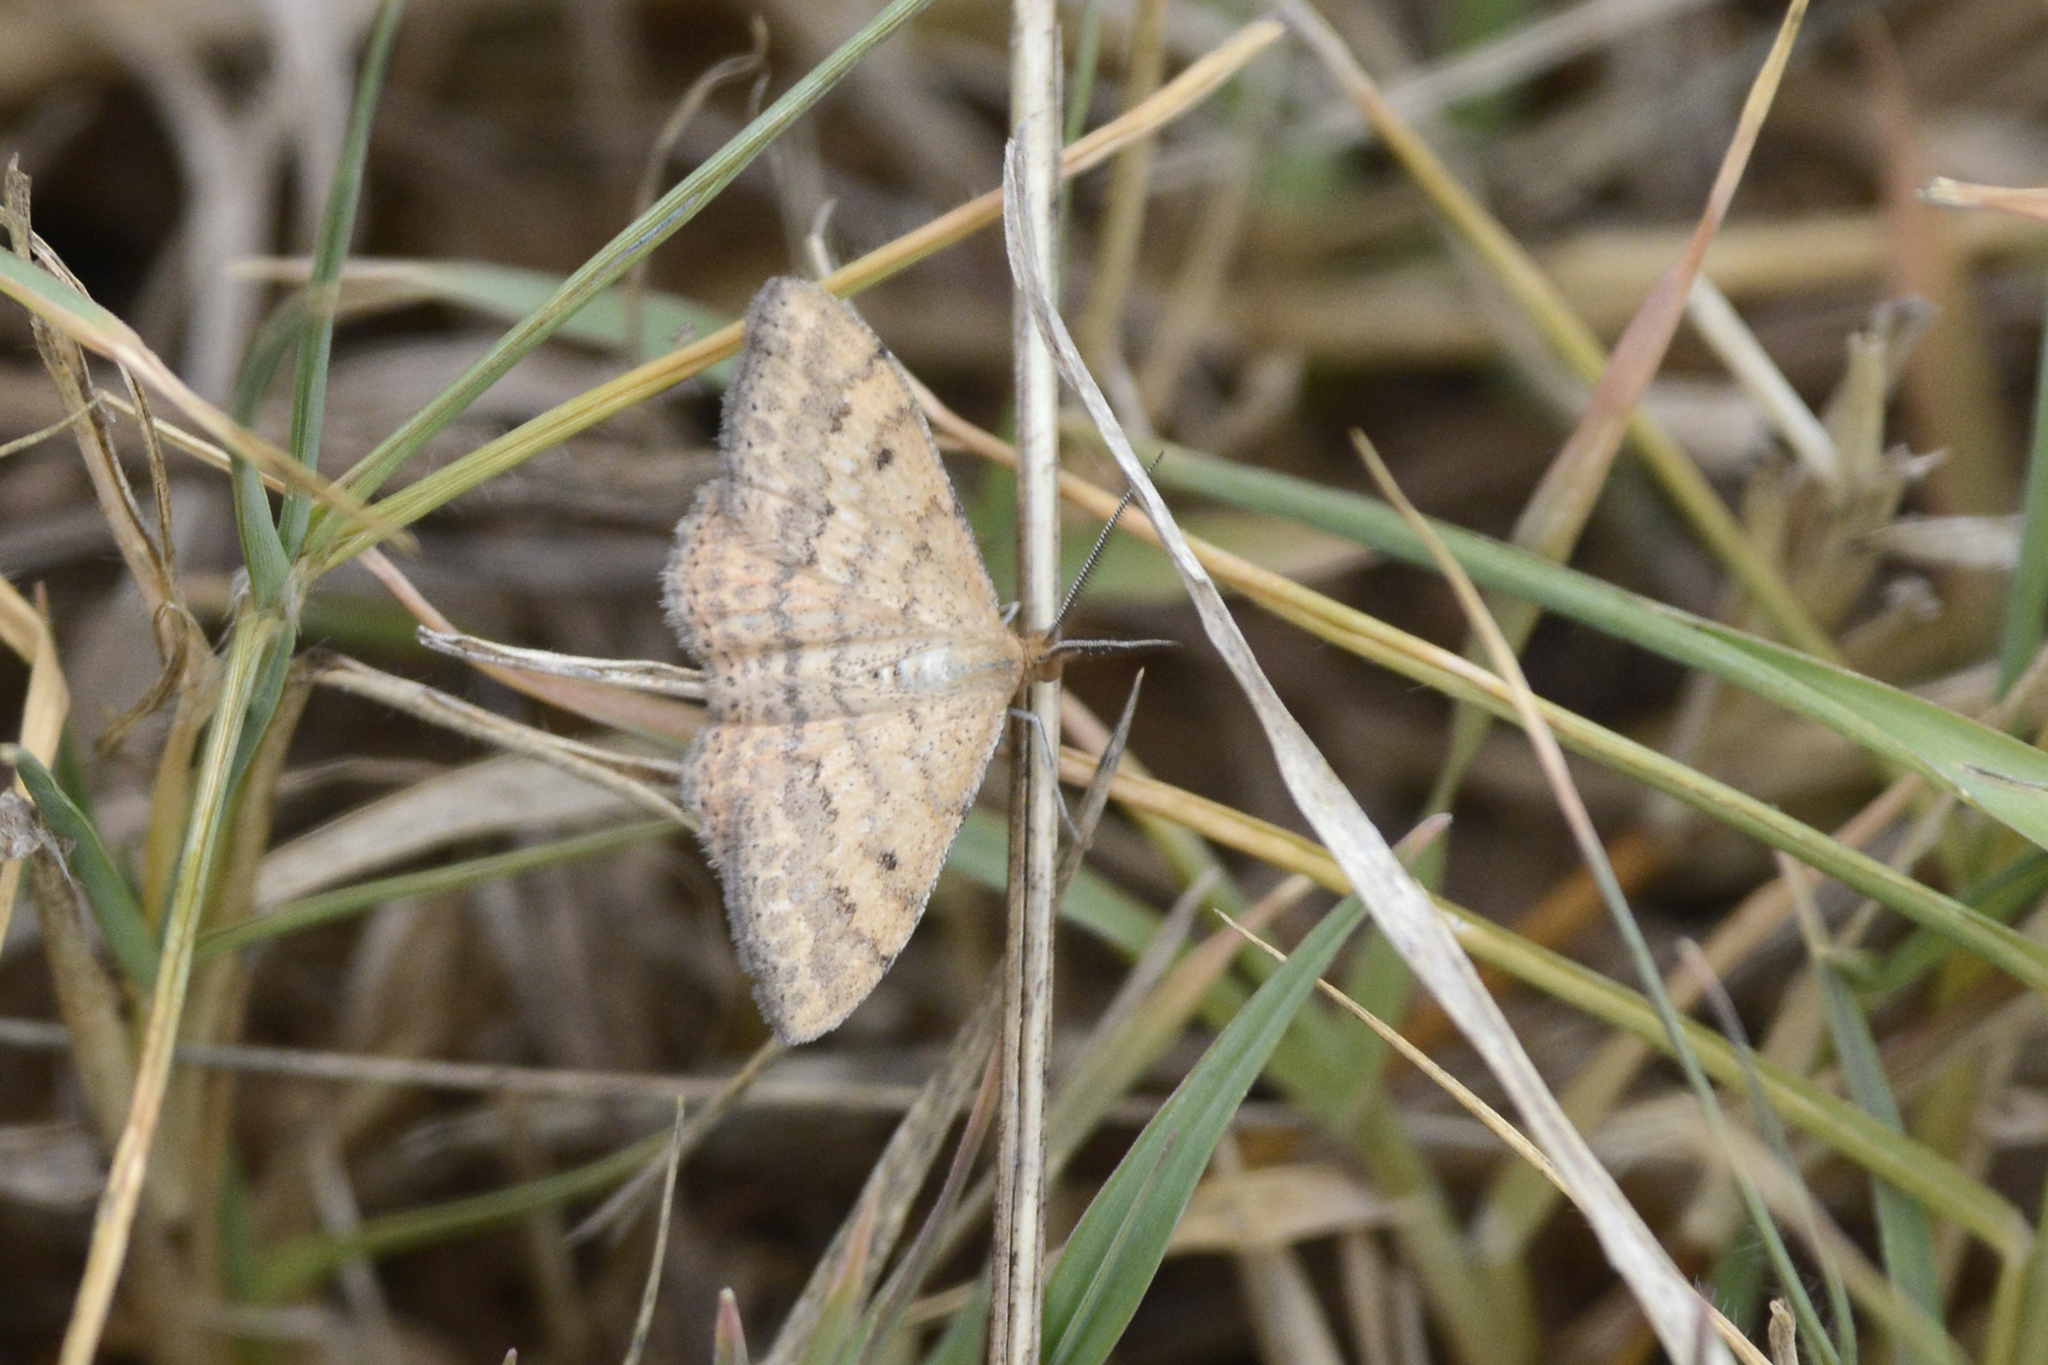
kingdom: Animalia
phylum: Arthropoda
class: Insecta
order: Lepidoptera
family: Geometridae
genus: Scopula
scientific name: Scopula rubraria
